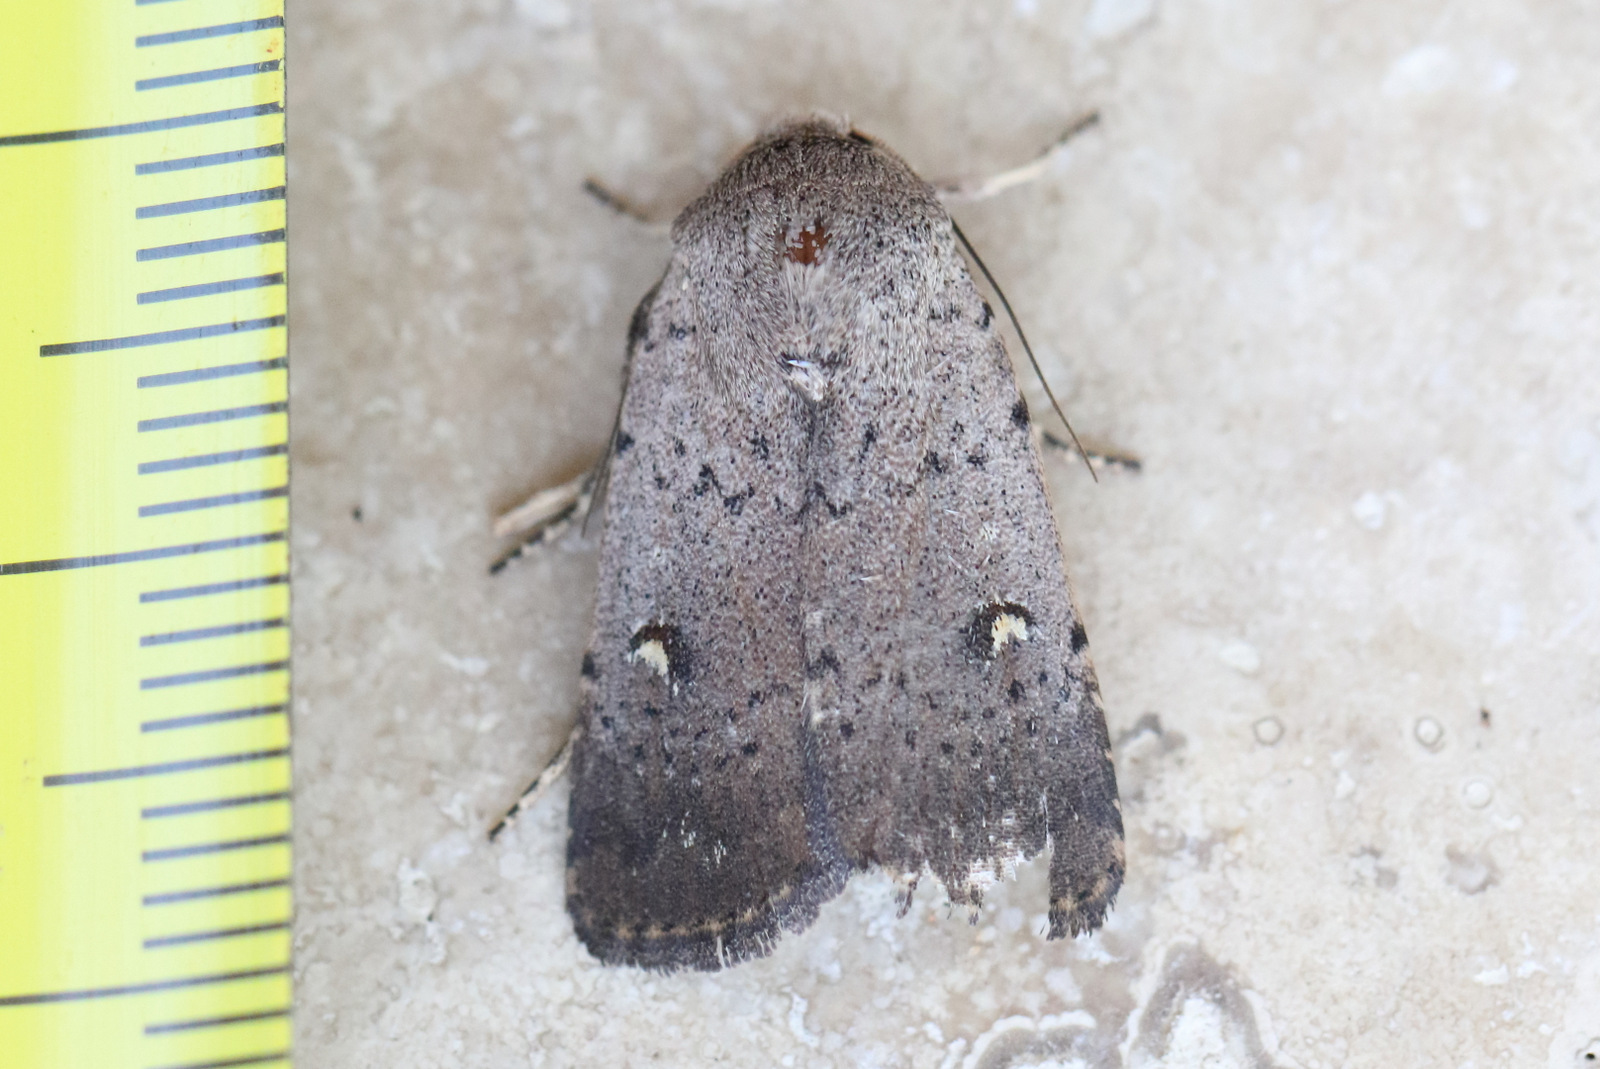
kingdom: Animalia
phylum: Arthropoda
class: Insecta
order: Lepidoptera
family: Noctuidae
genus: Proteuxoa
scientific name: Proteuxoa tibiata
